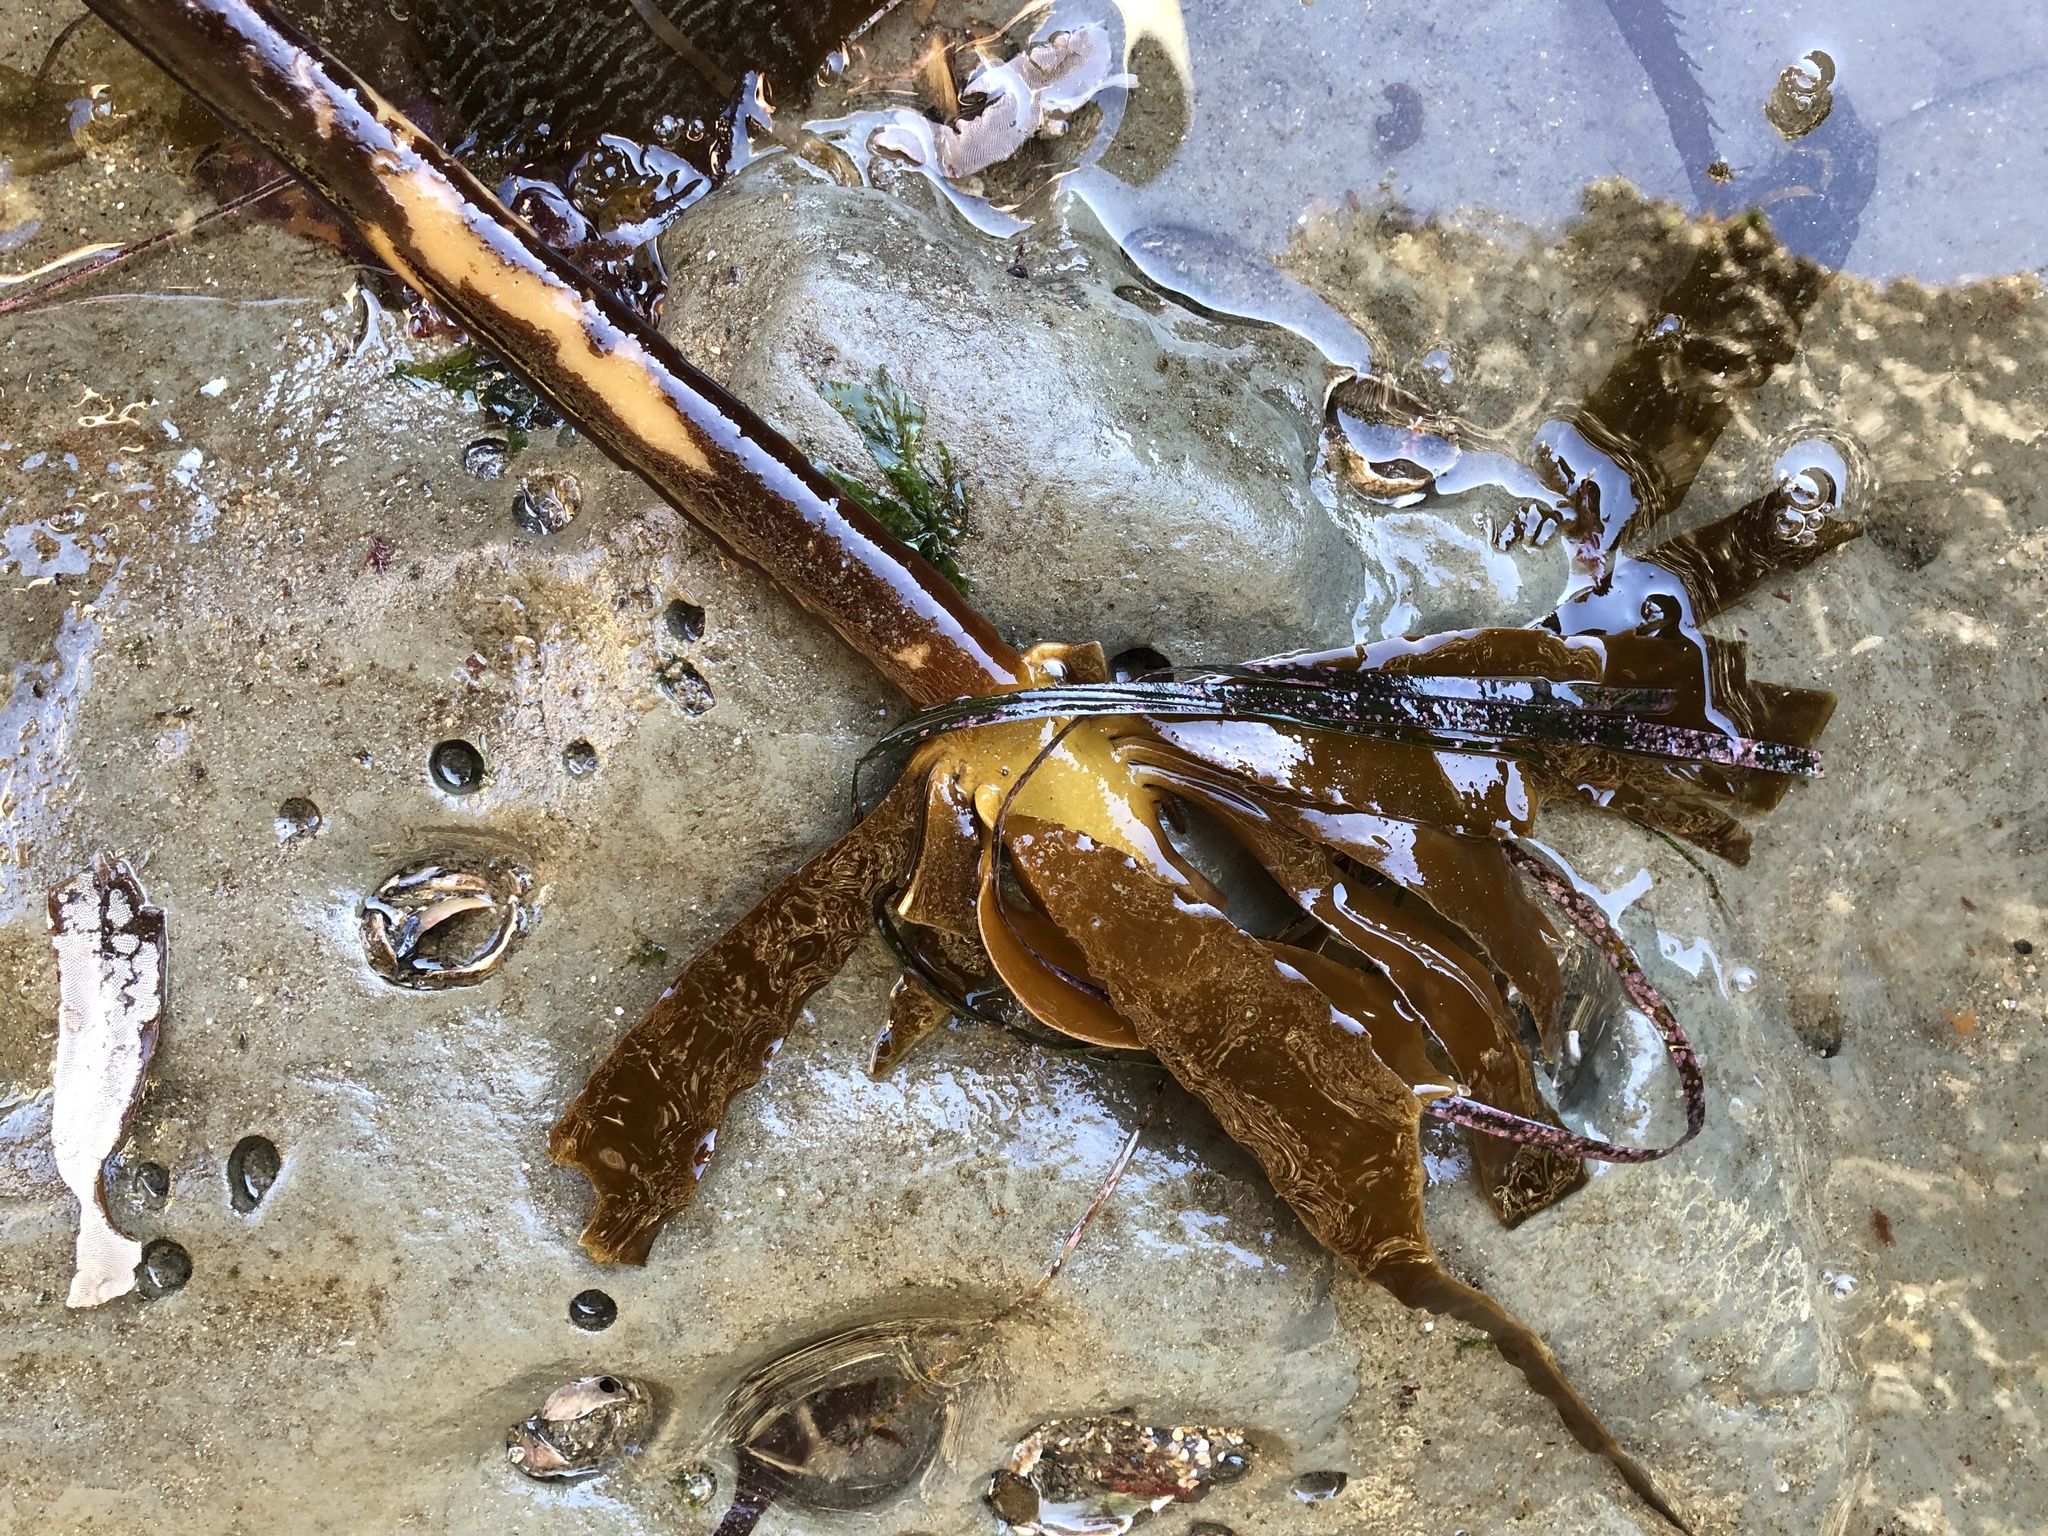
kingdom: Chromista
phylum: Ochrophyta
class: Phaeophyceae
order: Laminariales
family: Alariaceae
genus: Pterygophora
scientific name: Pterygophora californica
